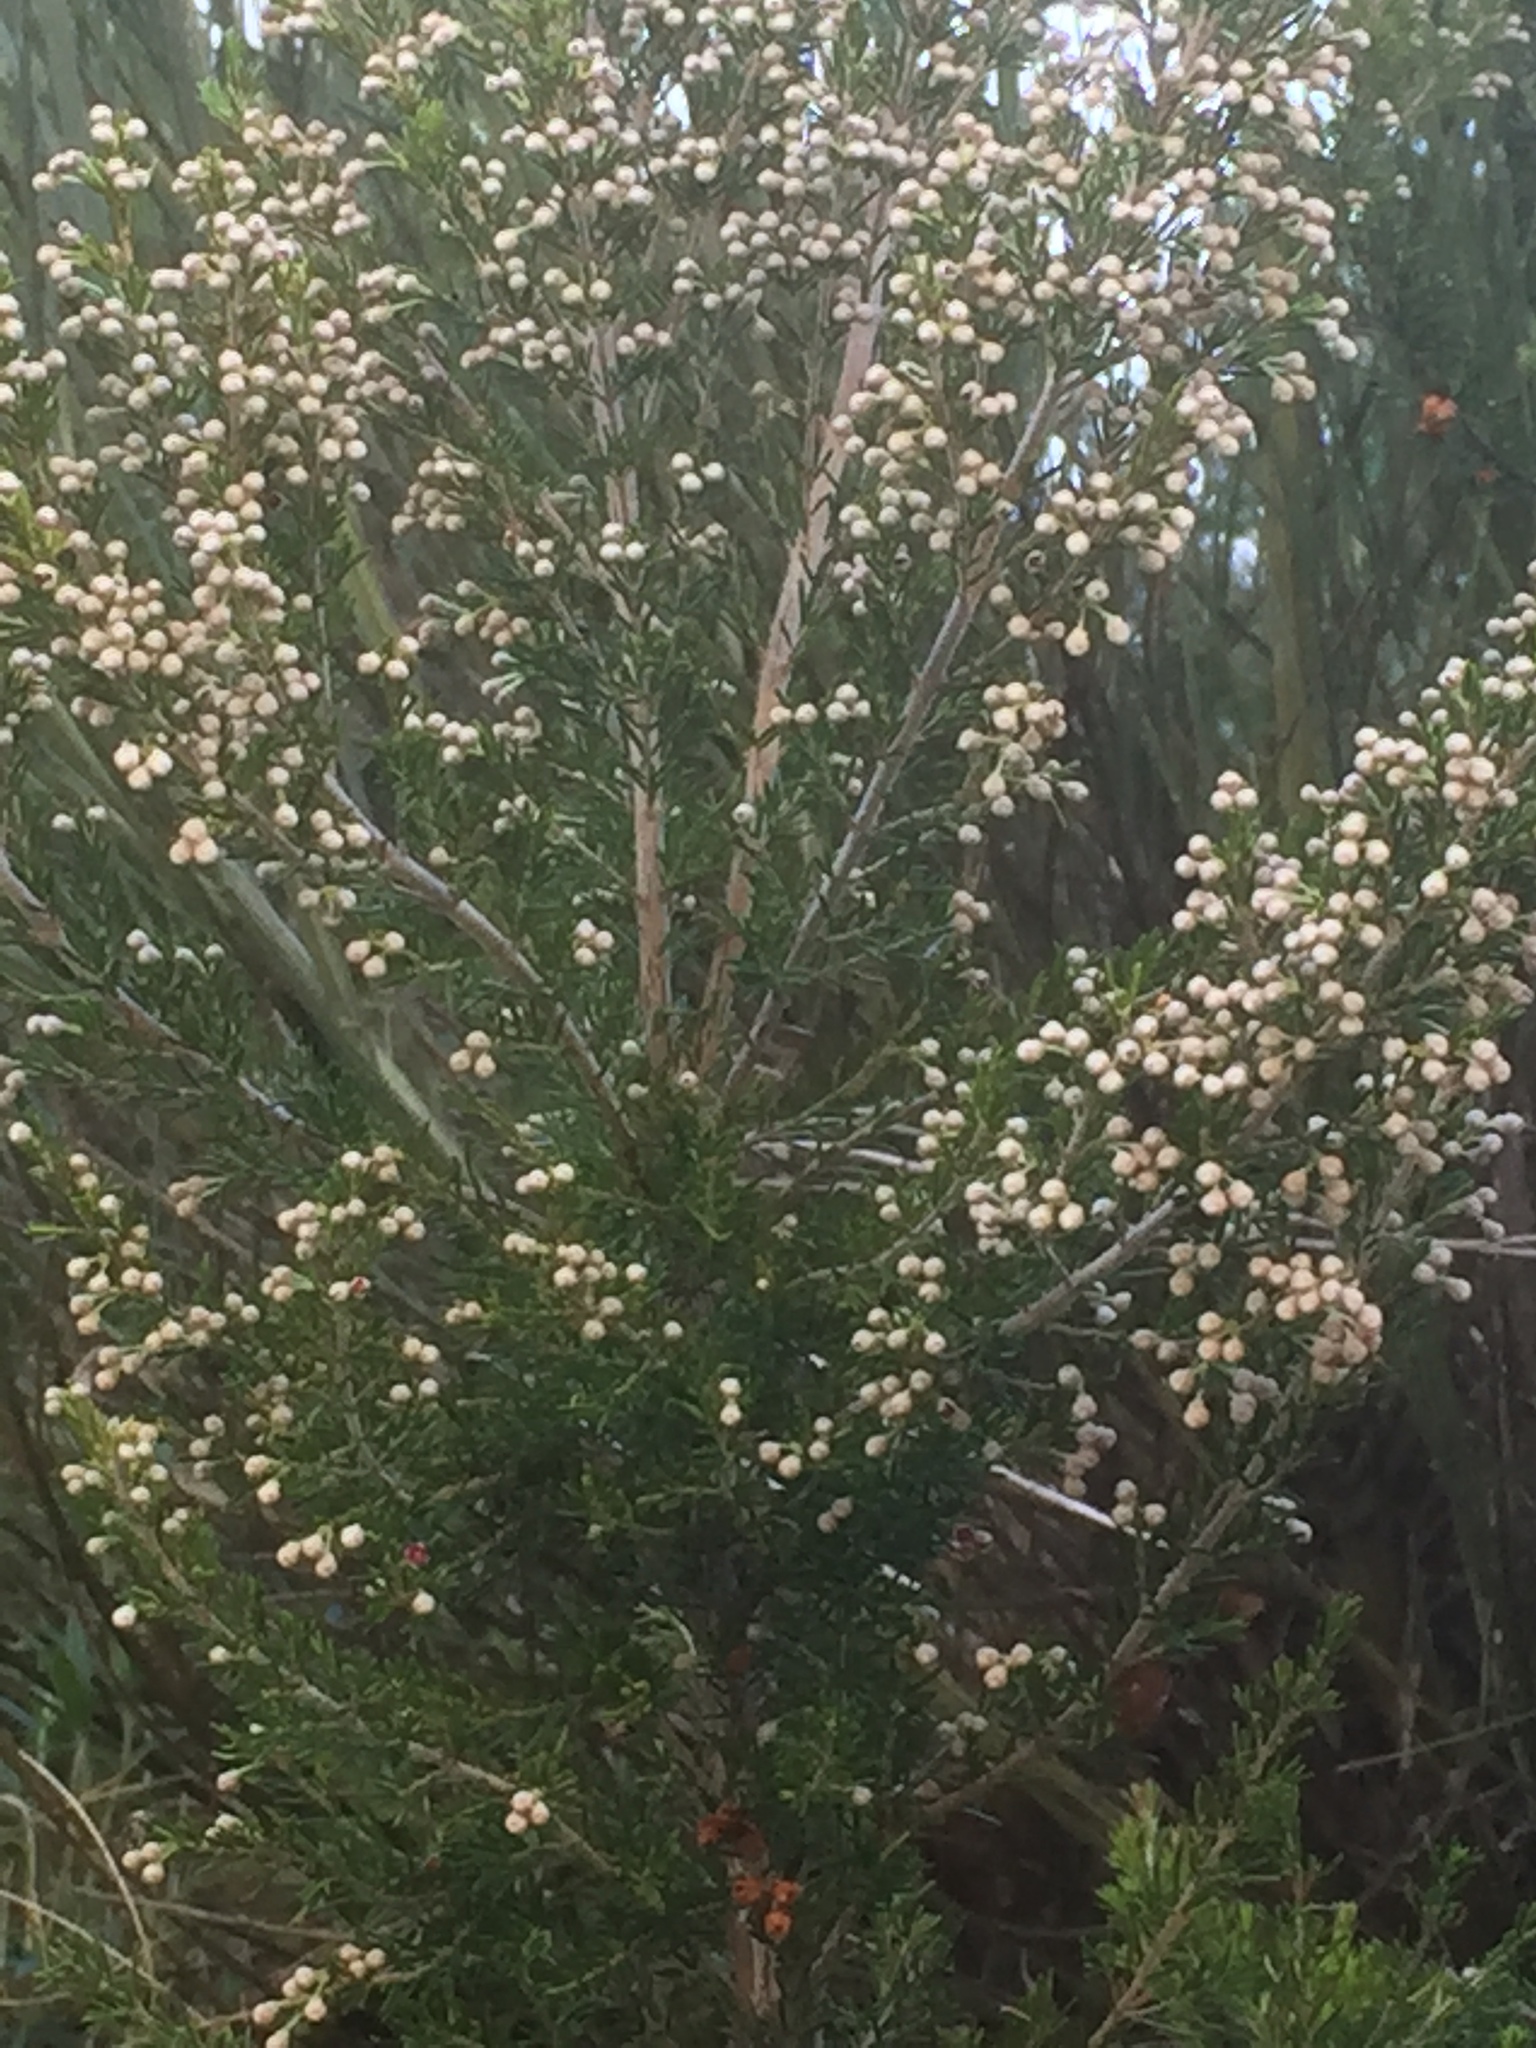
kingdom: Plantae
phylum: Tracheophyta
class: Magnoliopsida
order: Ericales
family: Ericaceae
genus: Erica
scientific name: Erica arborea
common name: Tree heath
